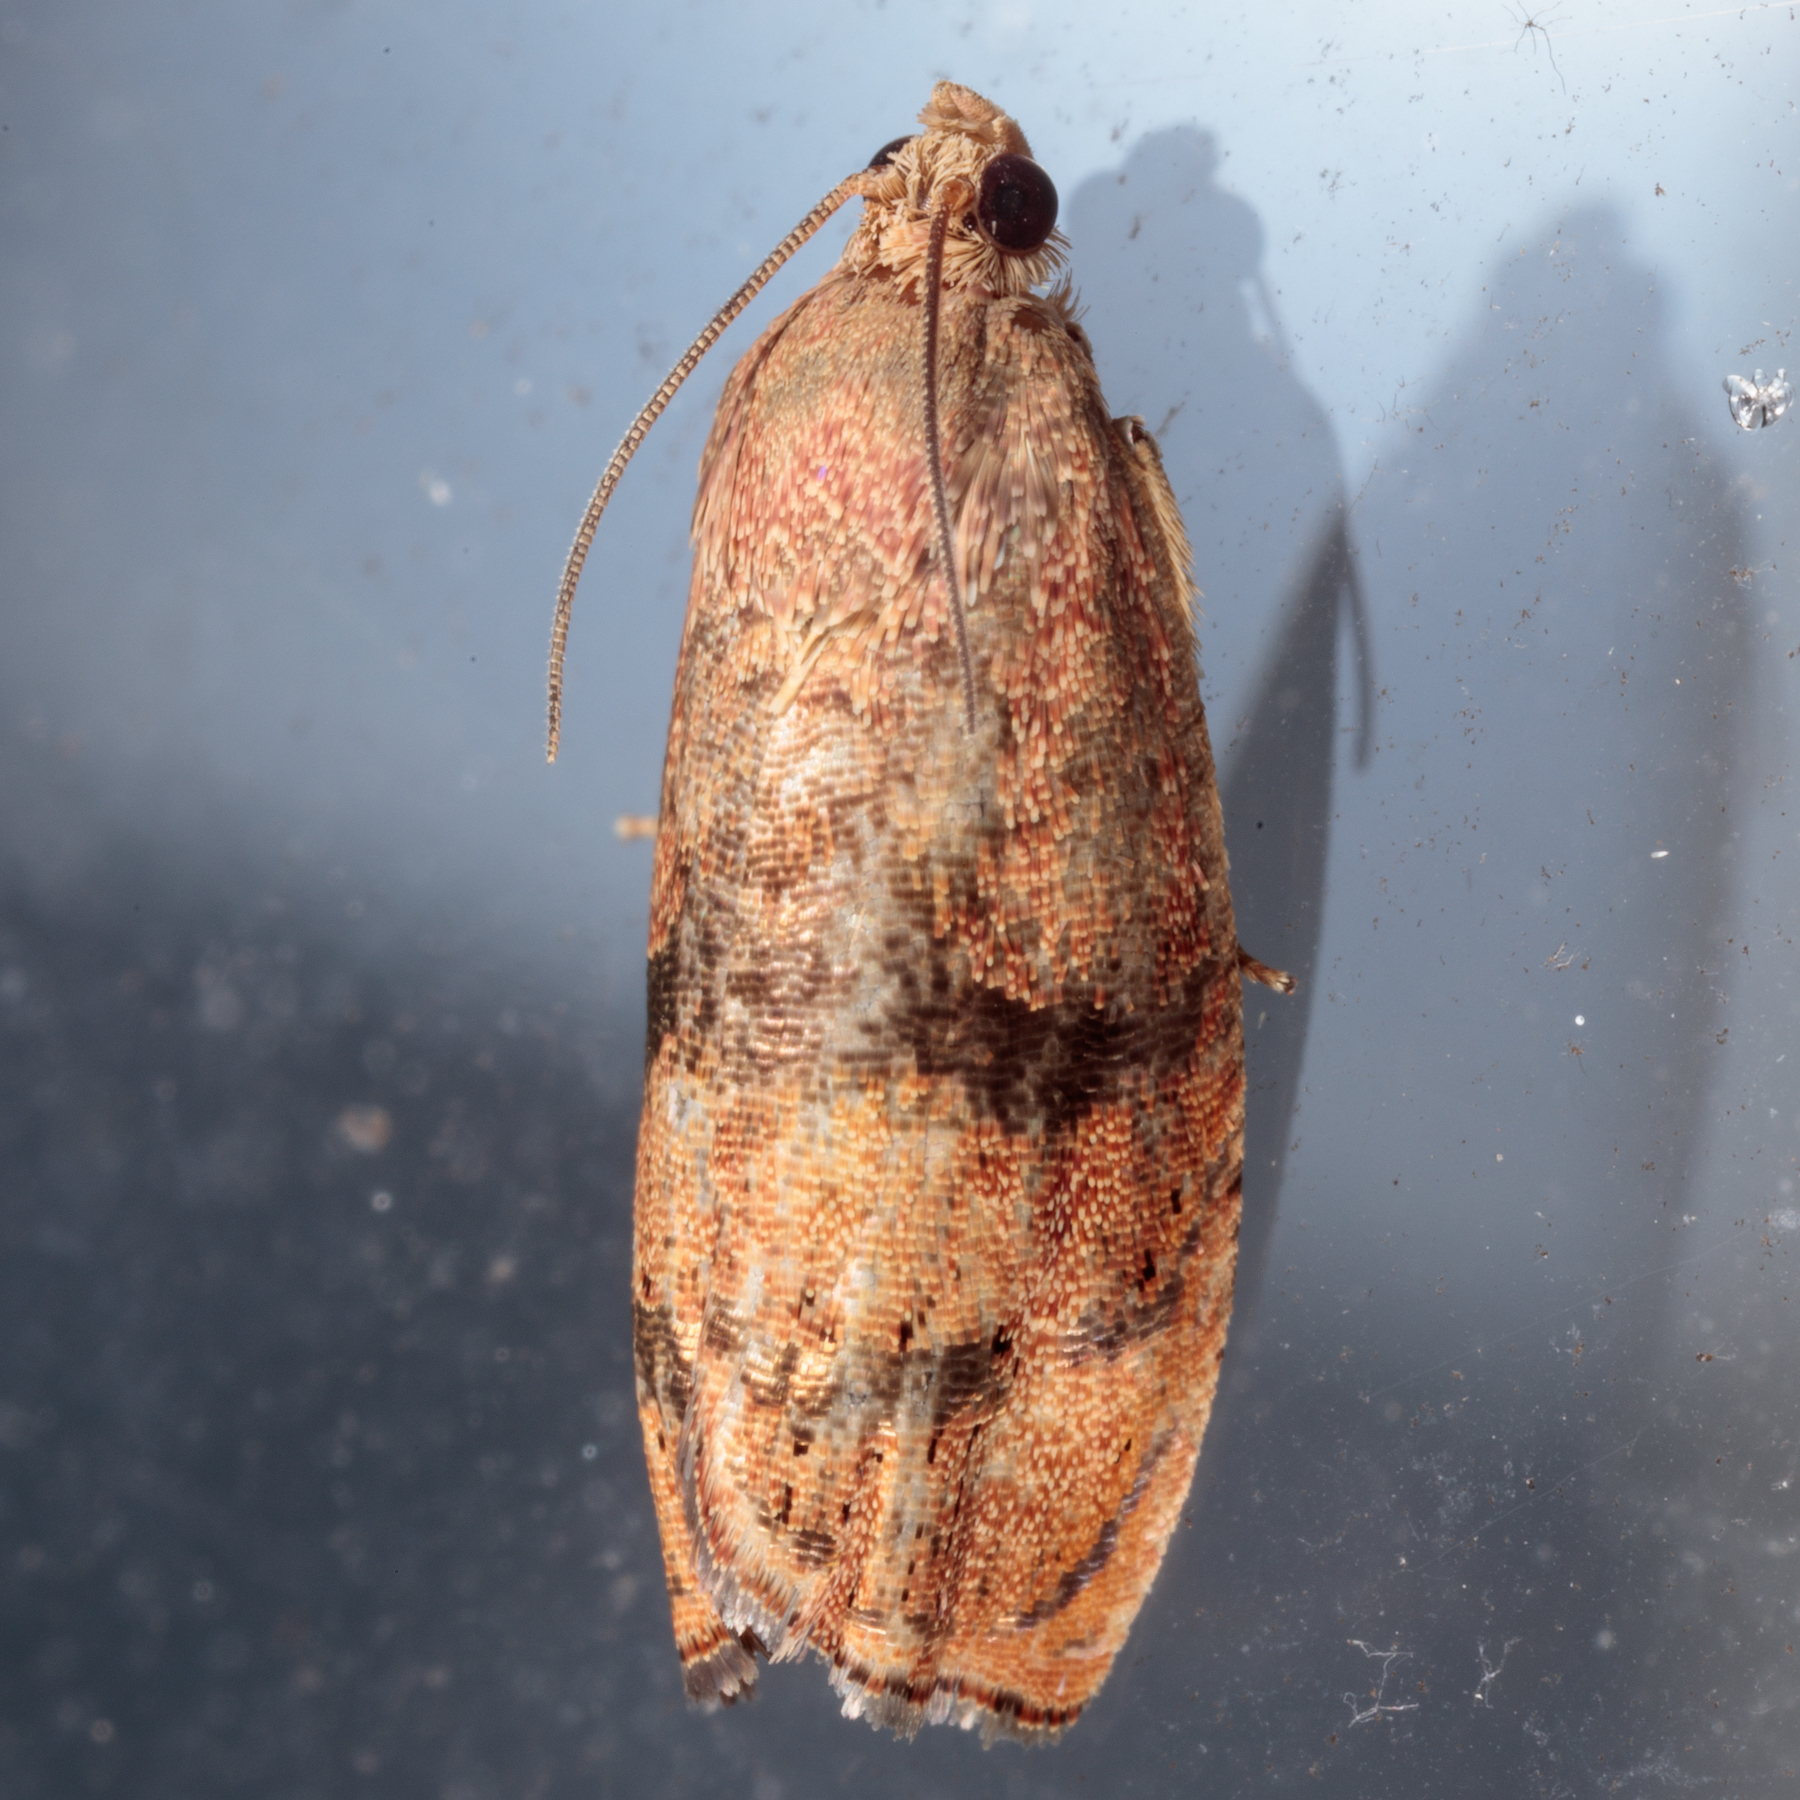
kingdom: Animalia
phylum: Arthropoda
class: Insecta
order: Lepidoptera
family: Tortricidae
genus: Cydia
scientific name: Cydia latiferreana
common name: Filbertworm moth
